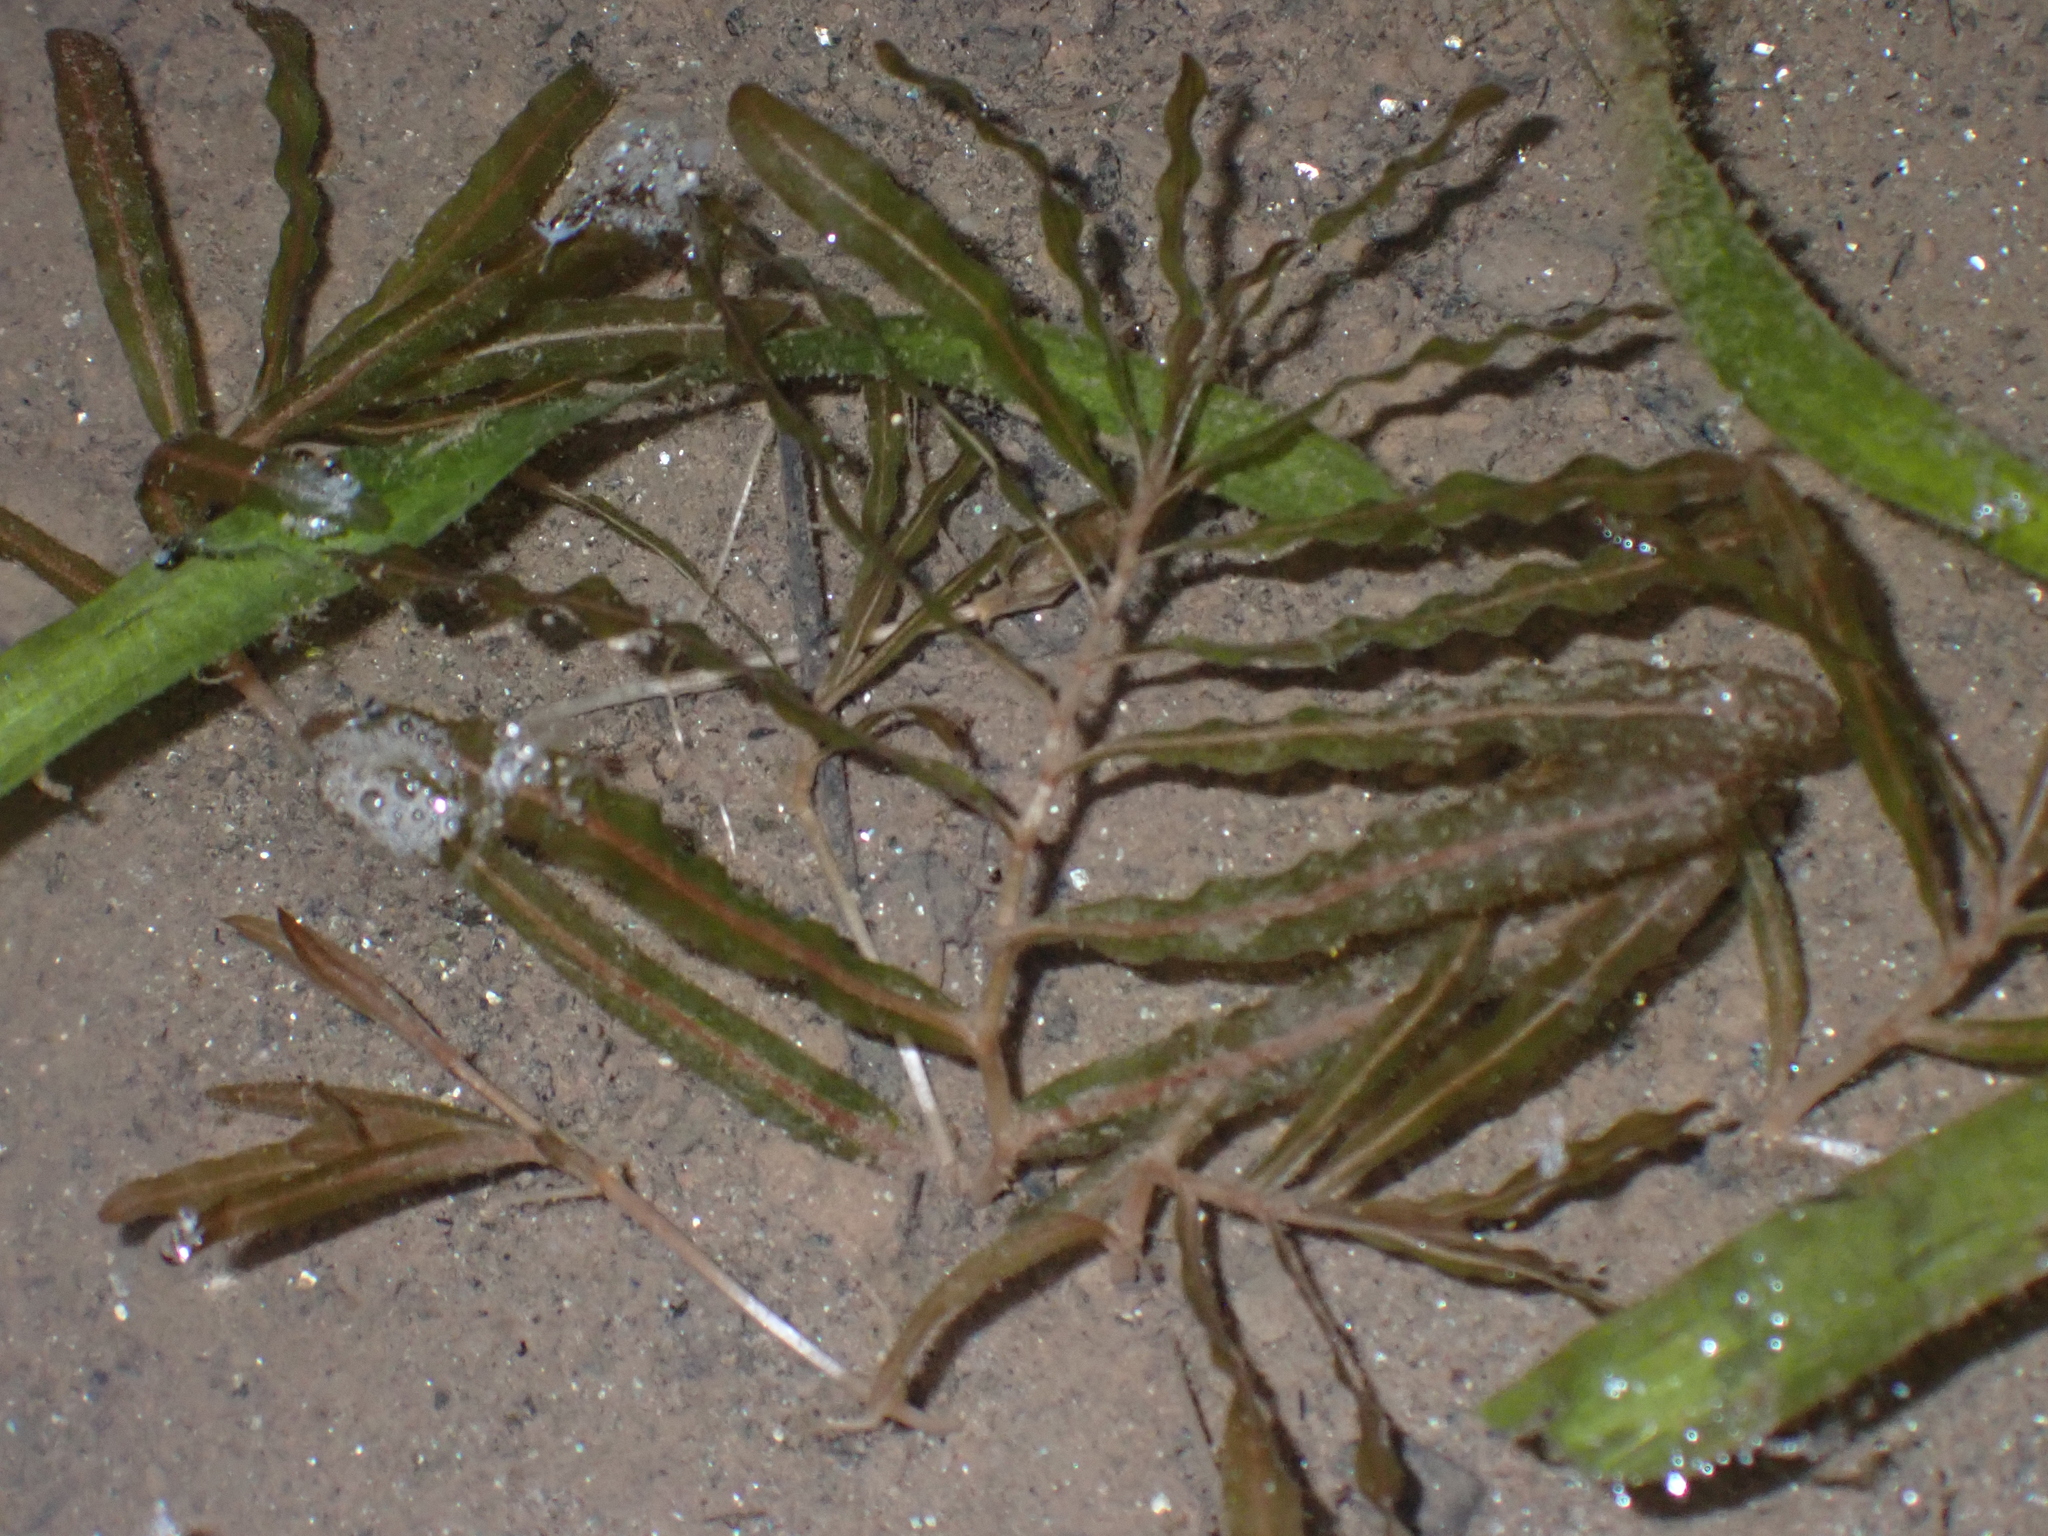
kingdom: Plantae
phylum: Tracheophyta
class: Liliopsida
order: Alismatales
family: Potamogetonaceae
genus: Potamogeton
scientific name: Potamogeton crispus
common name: Curled pondweed
